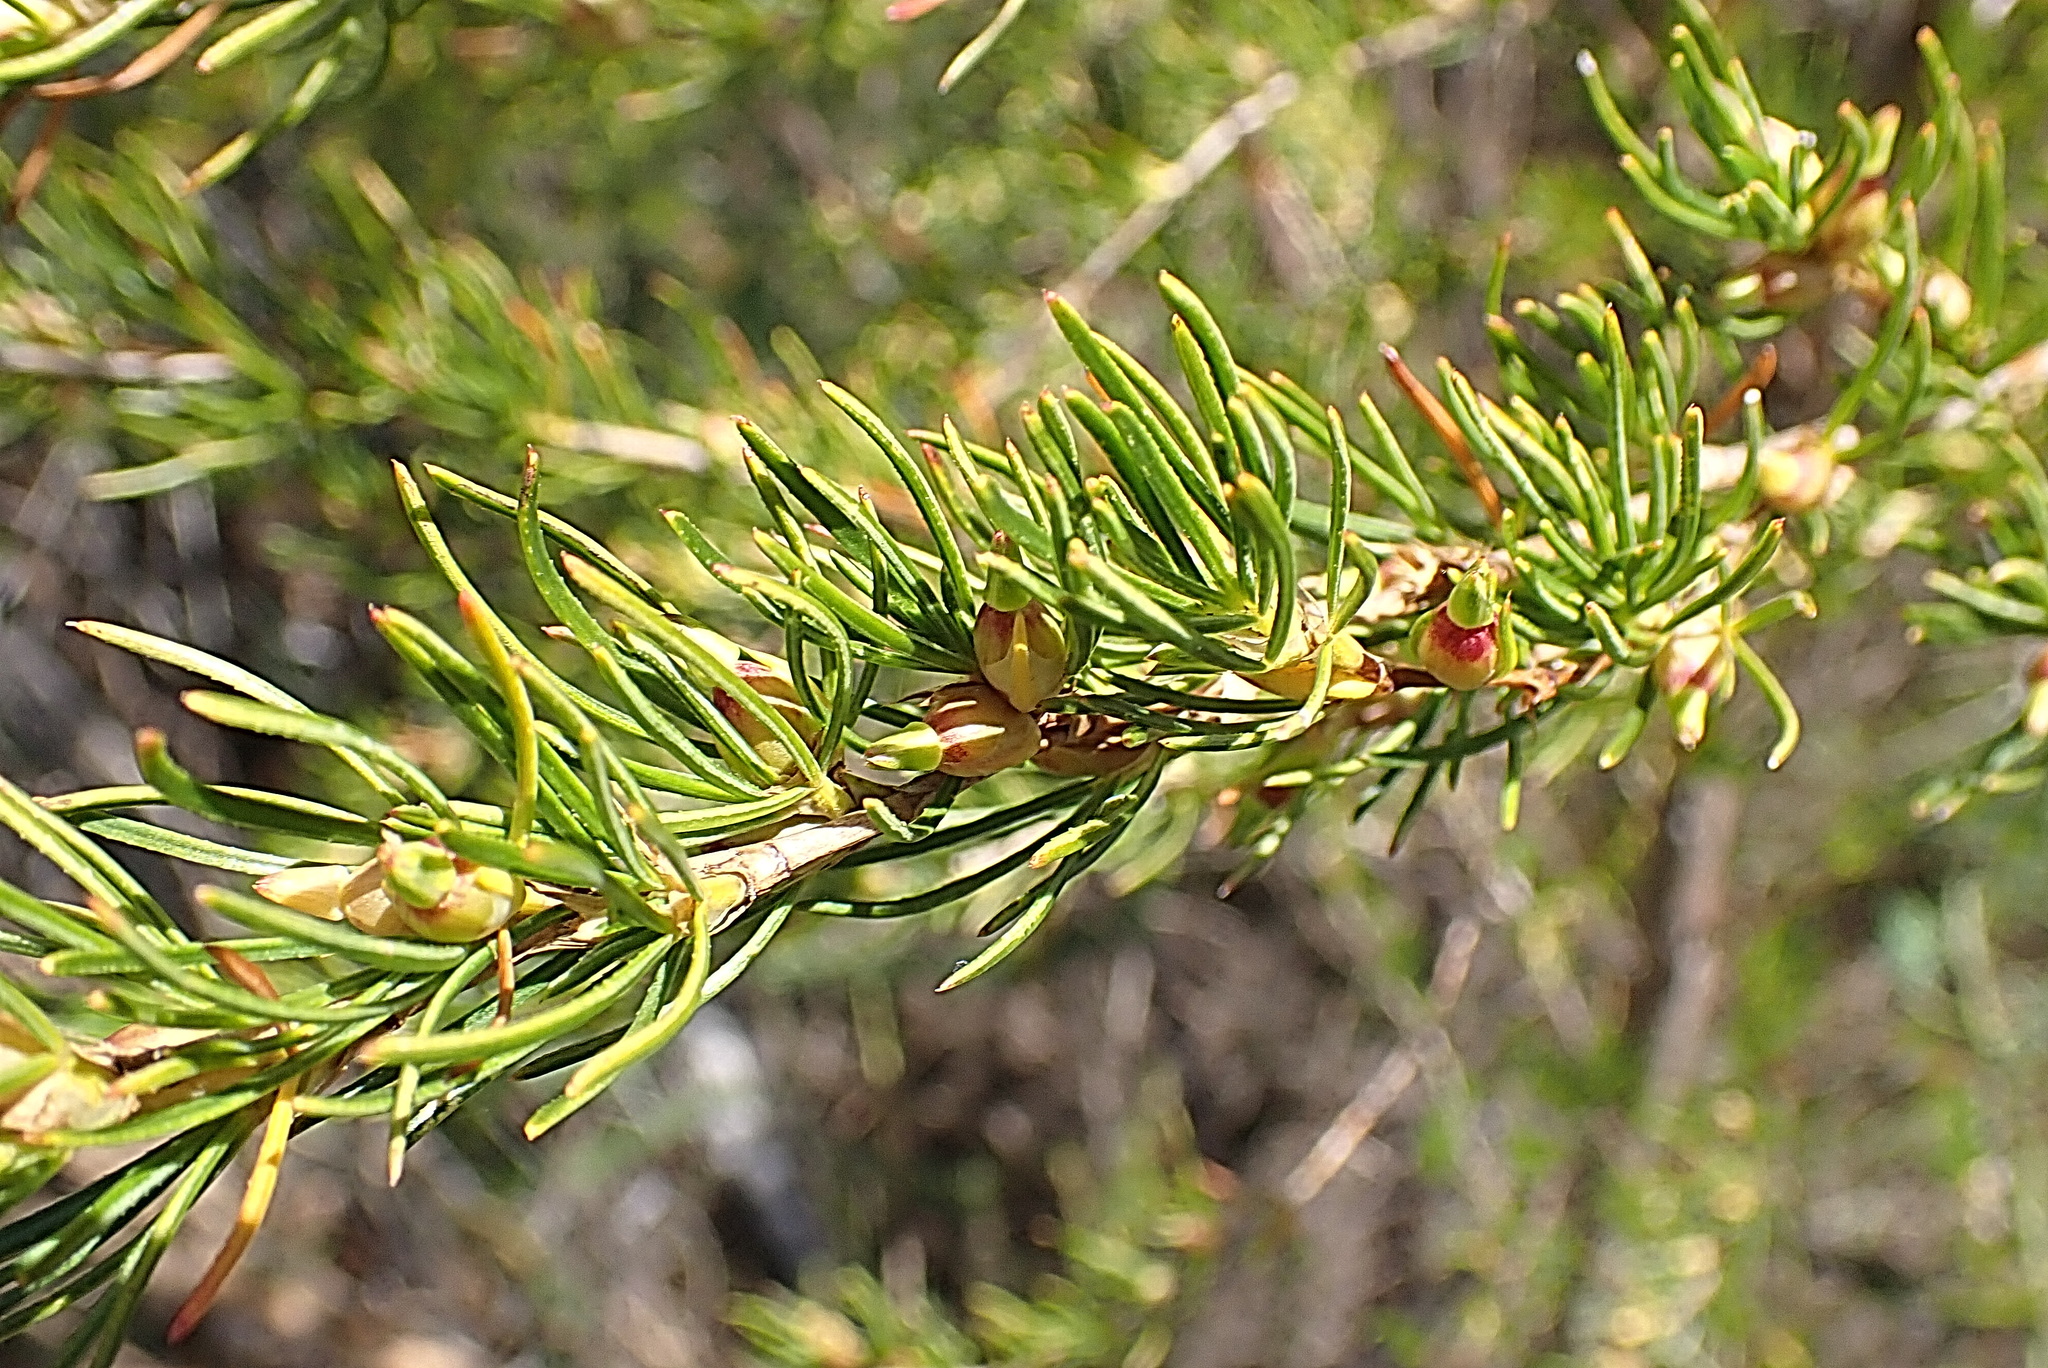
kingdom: Plantae
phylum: Tracheophyta
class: Magnoliopsida
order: Rosales
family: Rosaceae
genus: Cliffortia
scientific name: Cliffortia burchellii
